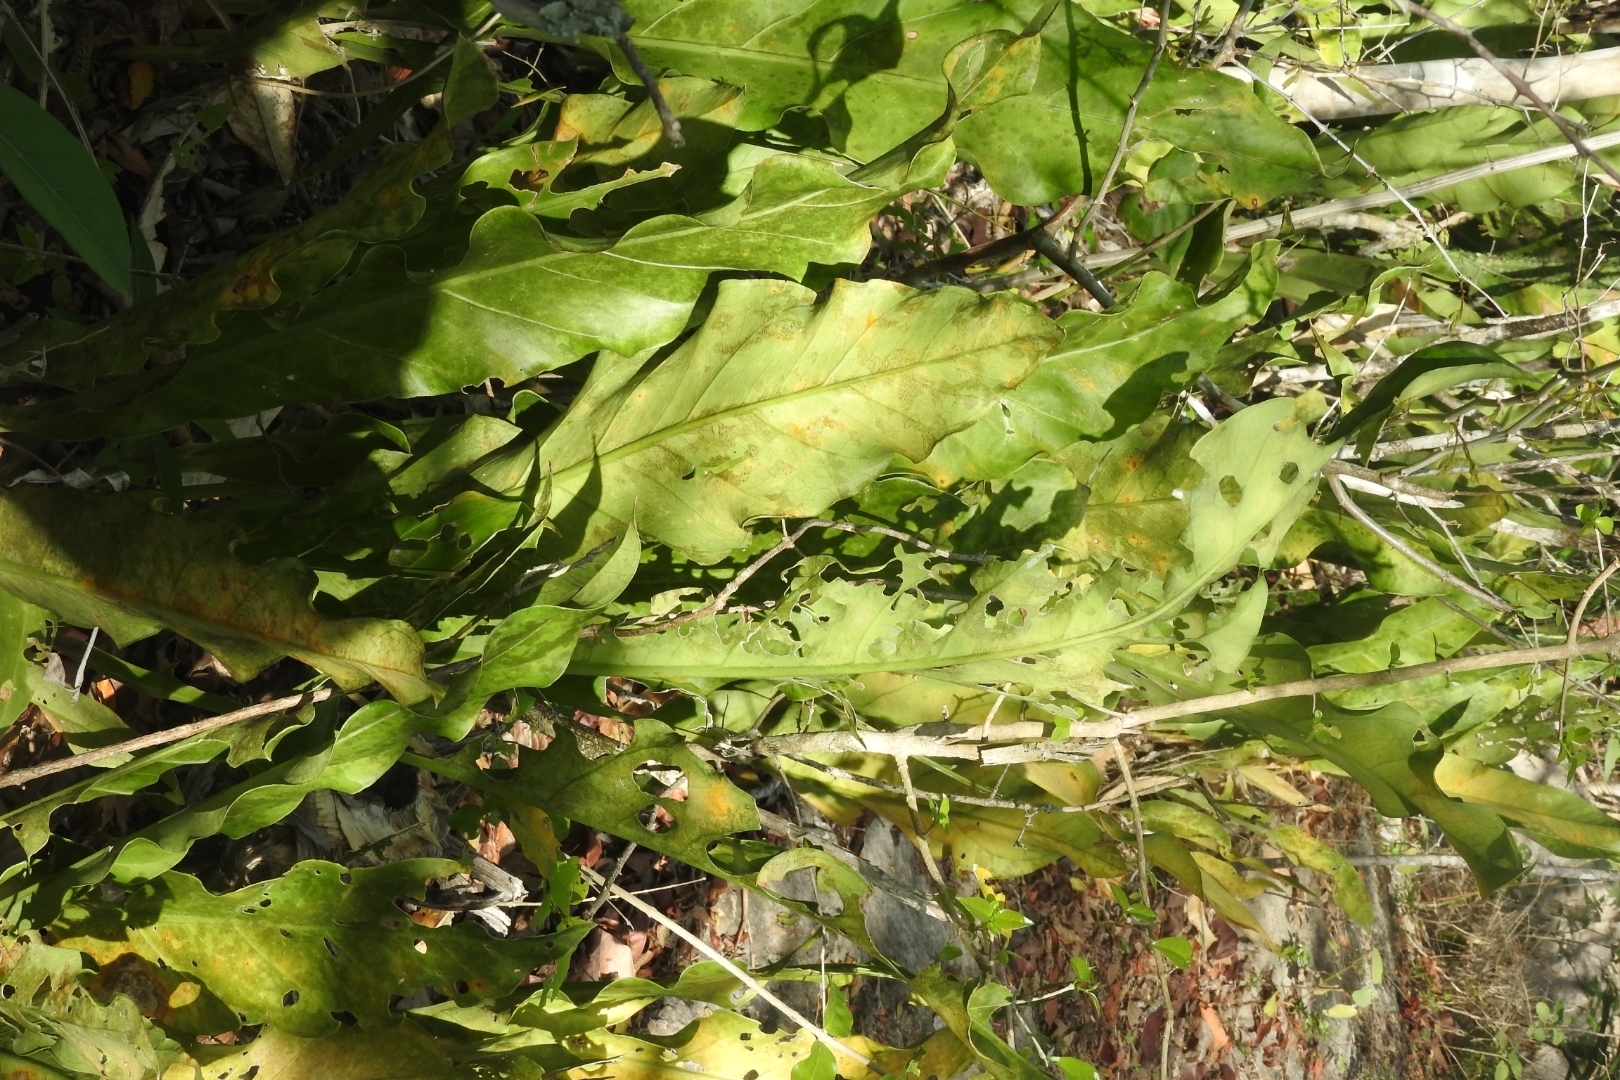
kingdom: Plantae
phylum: Tracheophyta
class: Liliopsida
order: Alismatales
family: Araceae
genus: Anthurium
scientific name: Anthurium schlechtendalii
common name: Laceleaf
